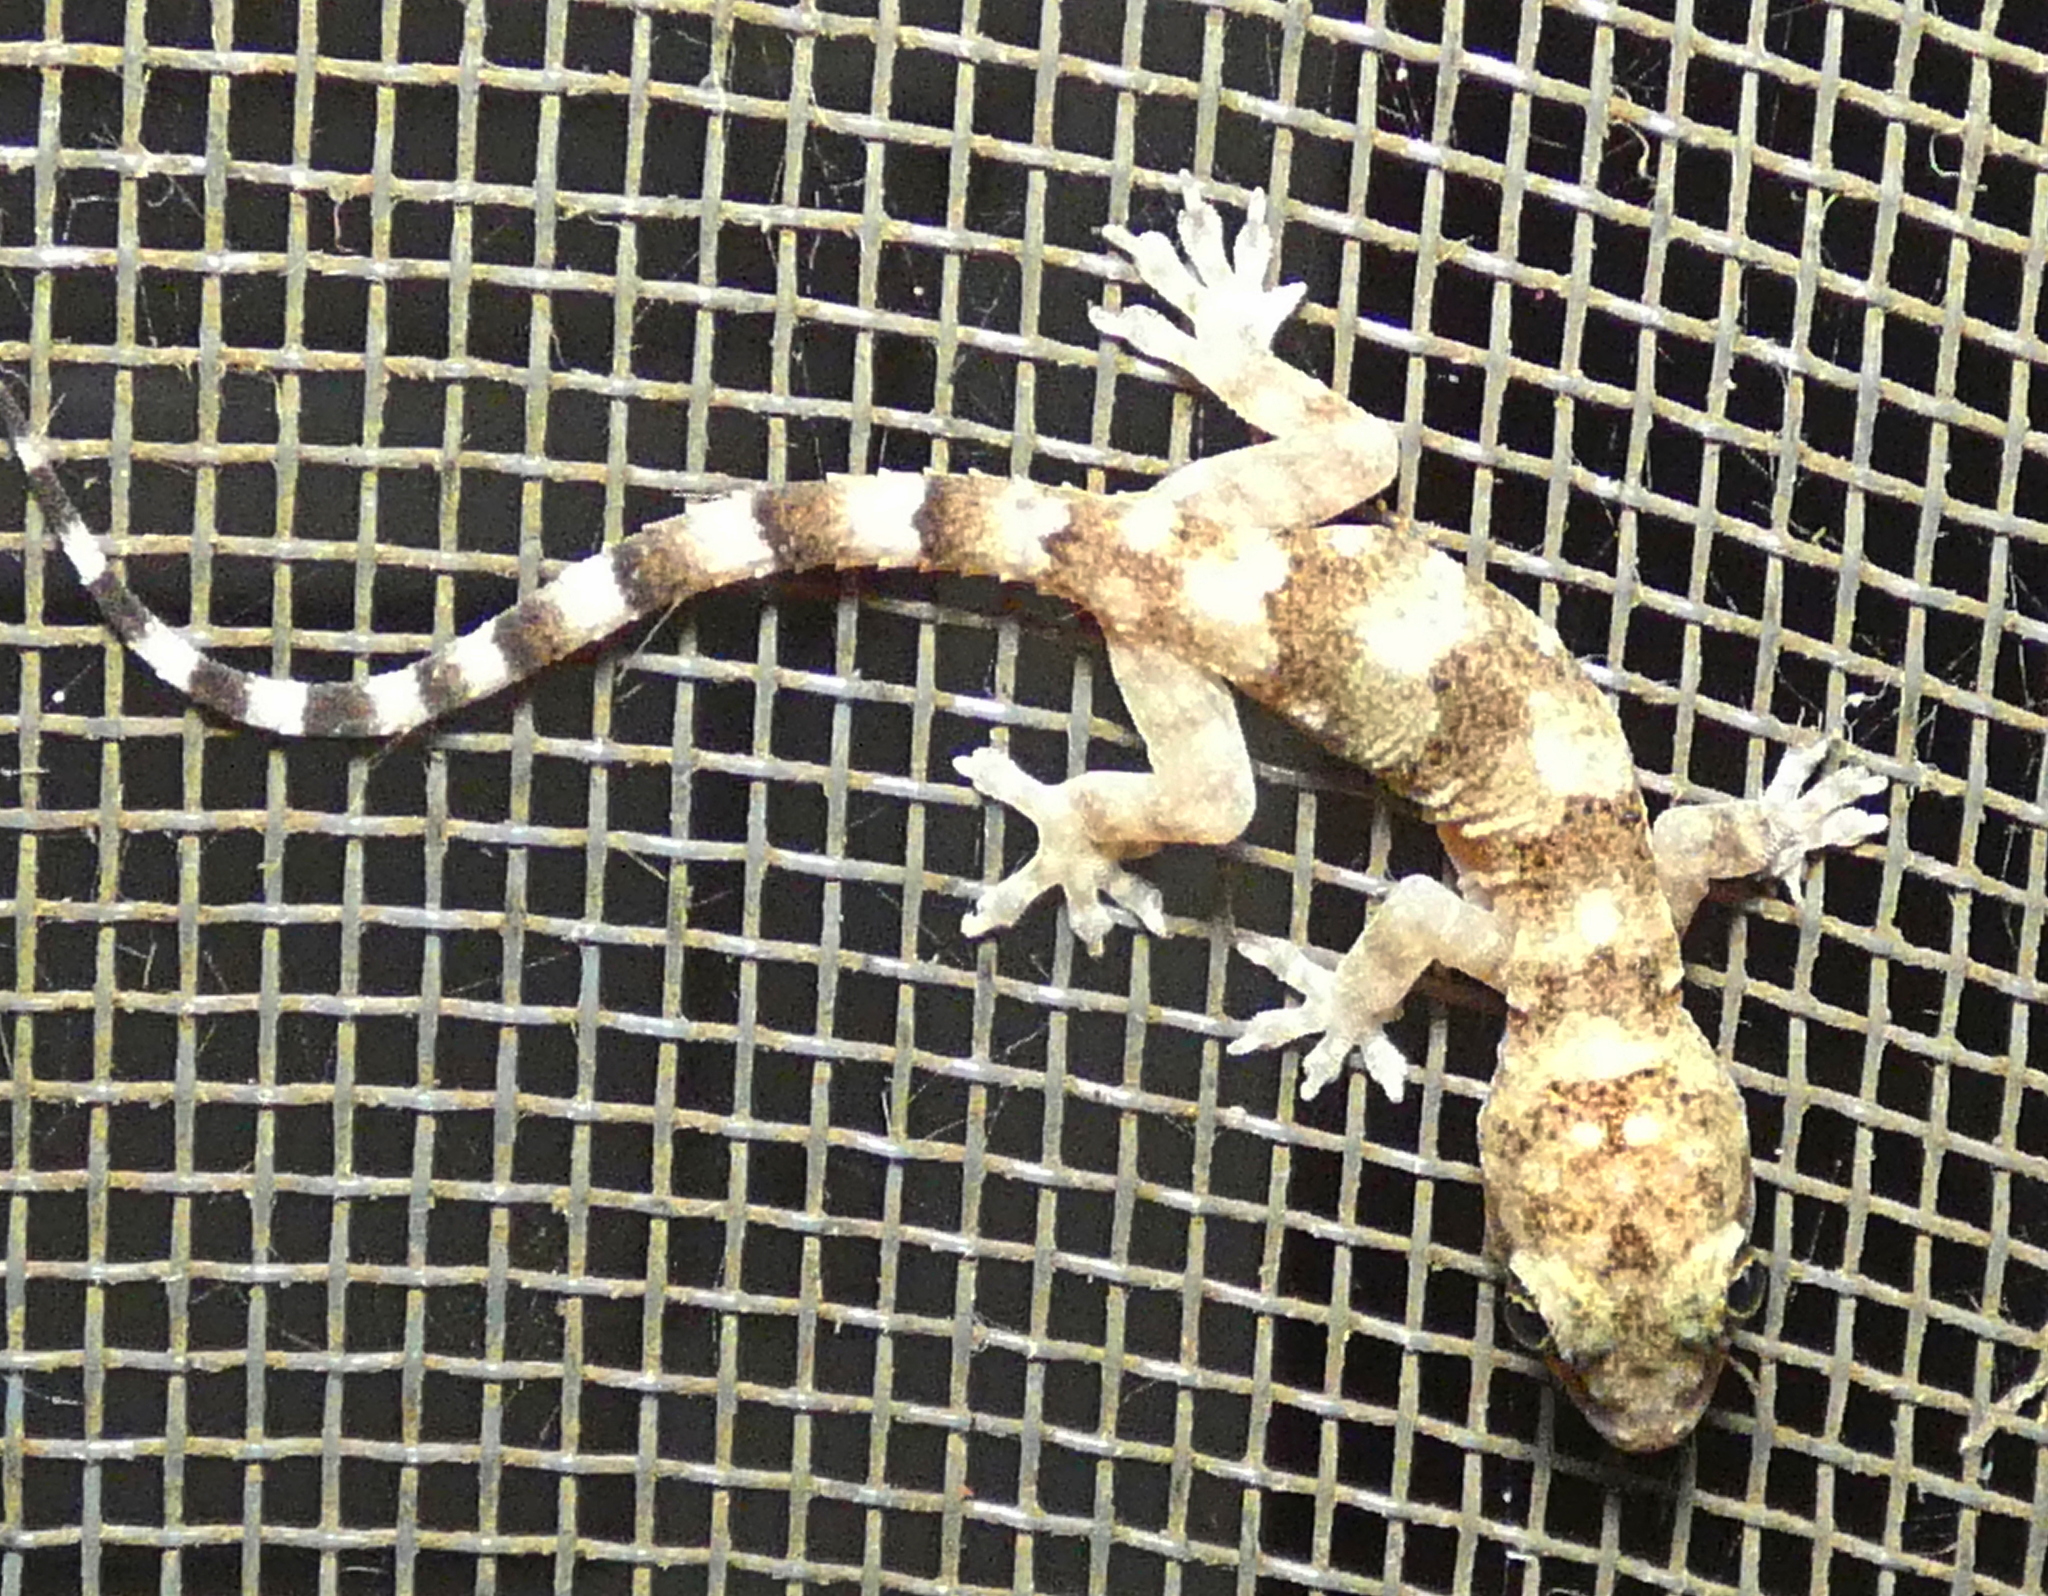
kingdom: Animalia
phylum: Chordata
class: Squamata
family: Gekkonidae
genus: Hemidactylus
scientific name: Hemidactylus mabouia
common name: House gecko
